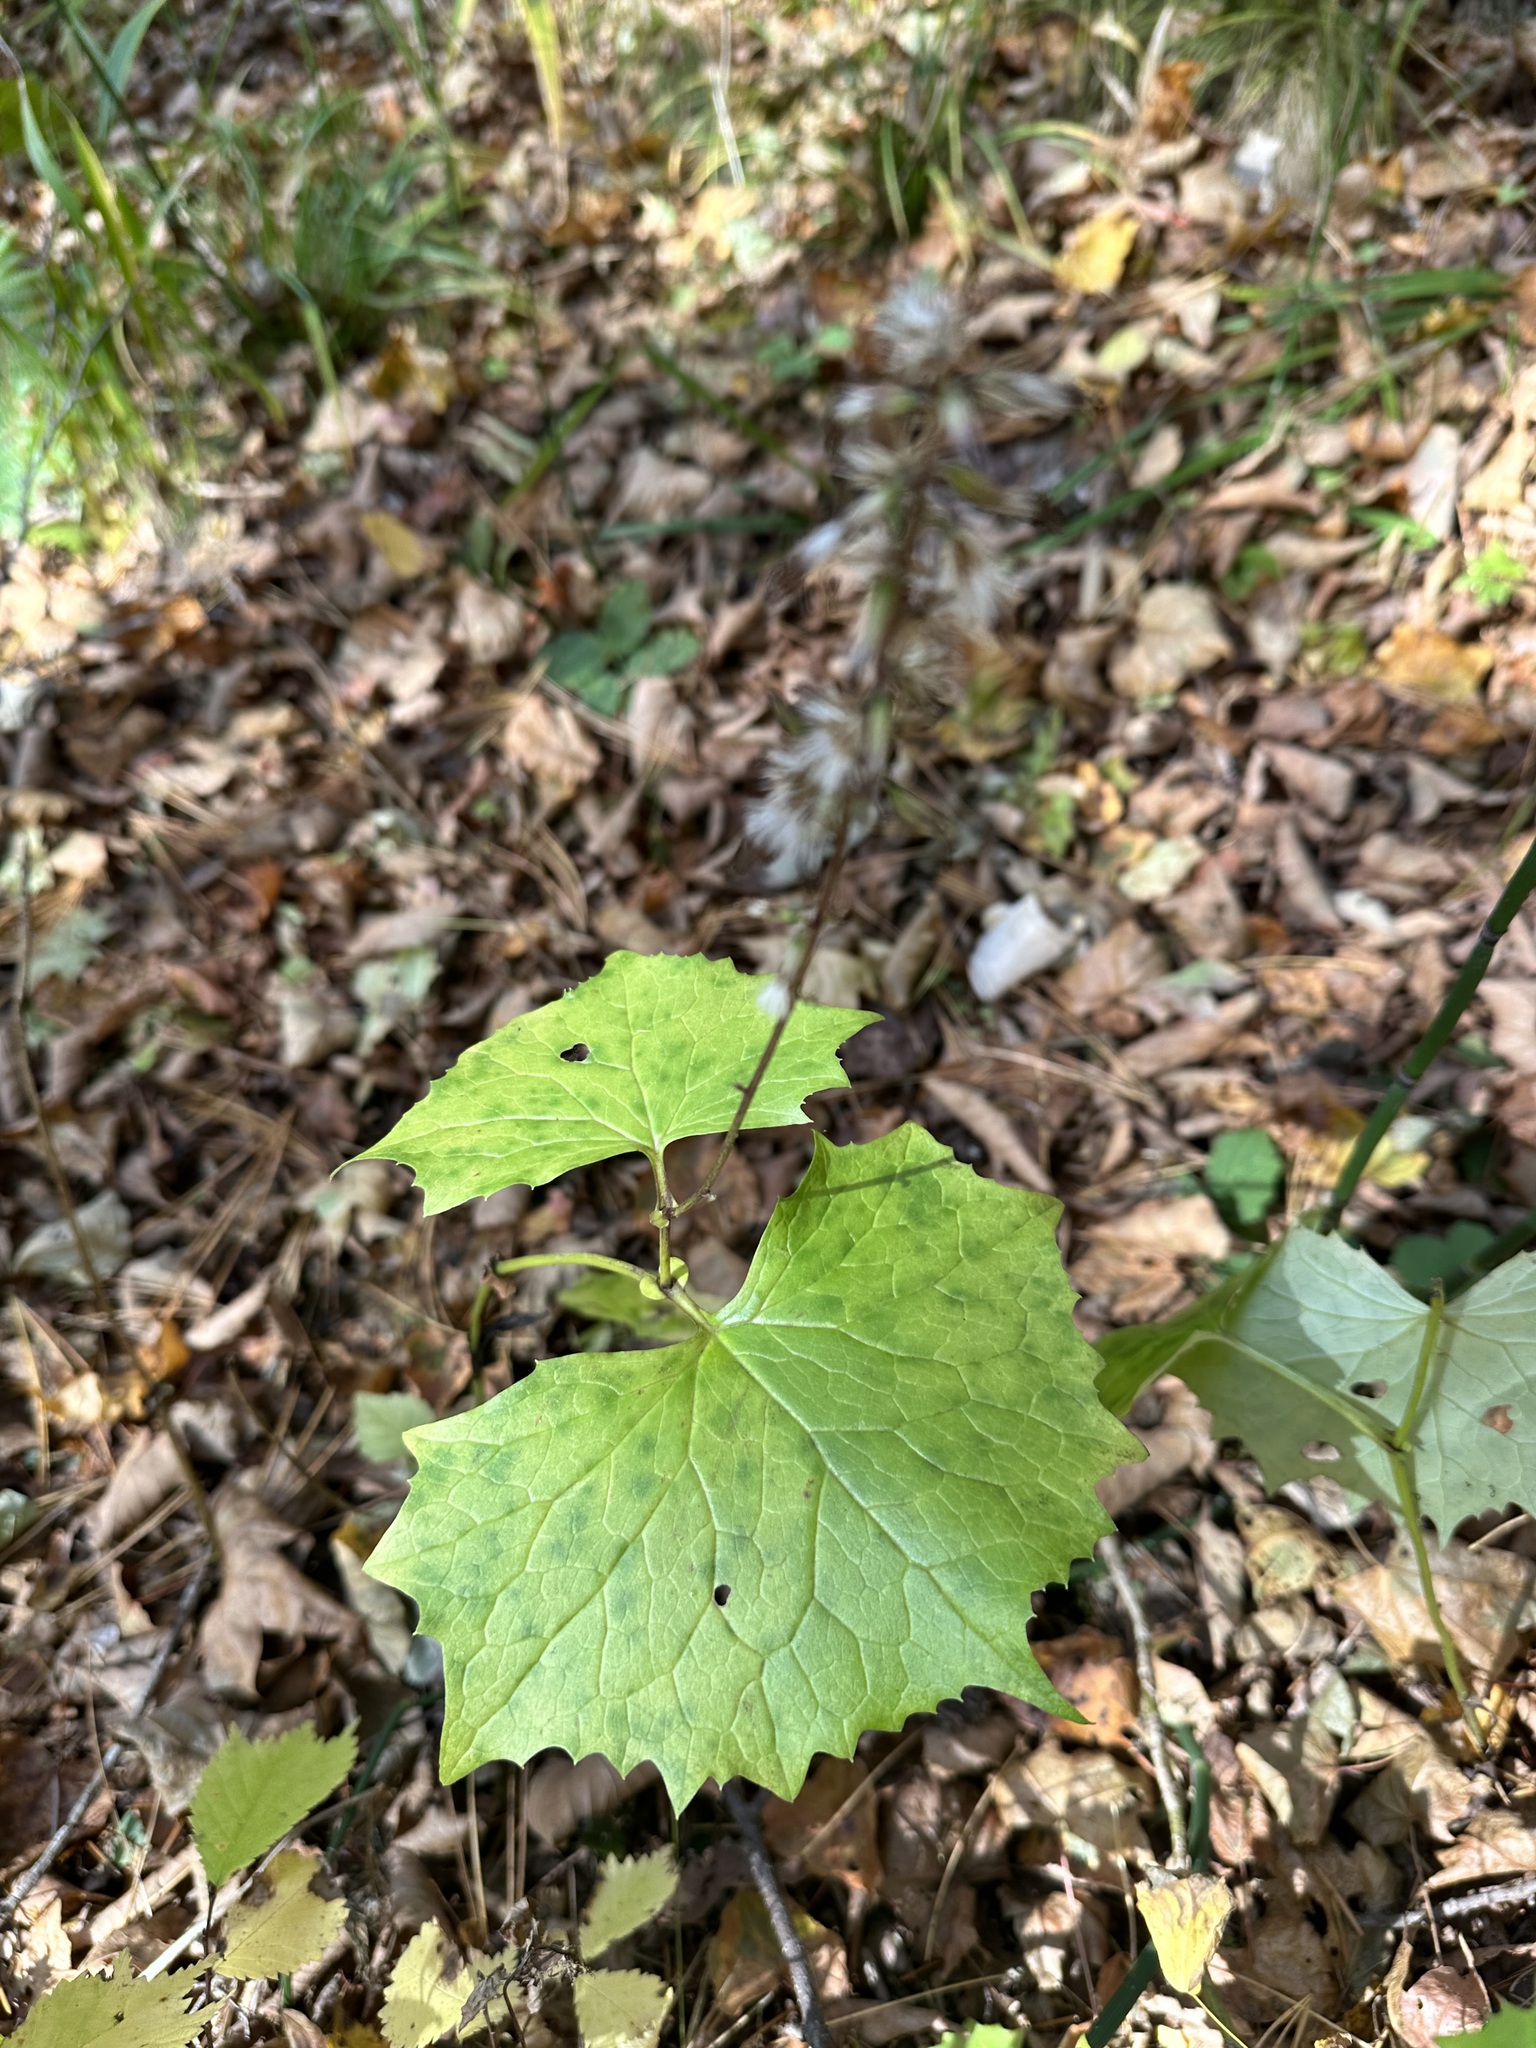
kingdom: Plantae
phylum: Tracheophyta
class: Magnoliopsida
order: Asterales
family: Asteraceae
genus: Parasenecio
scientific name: Parasenecio praetermissus
